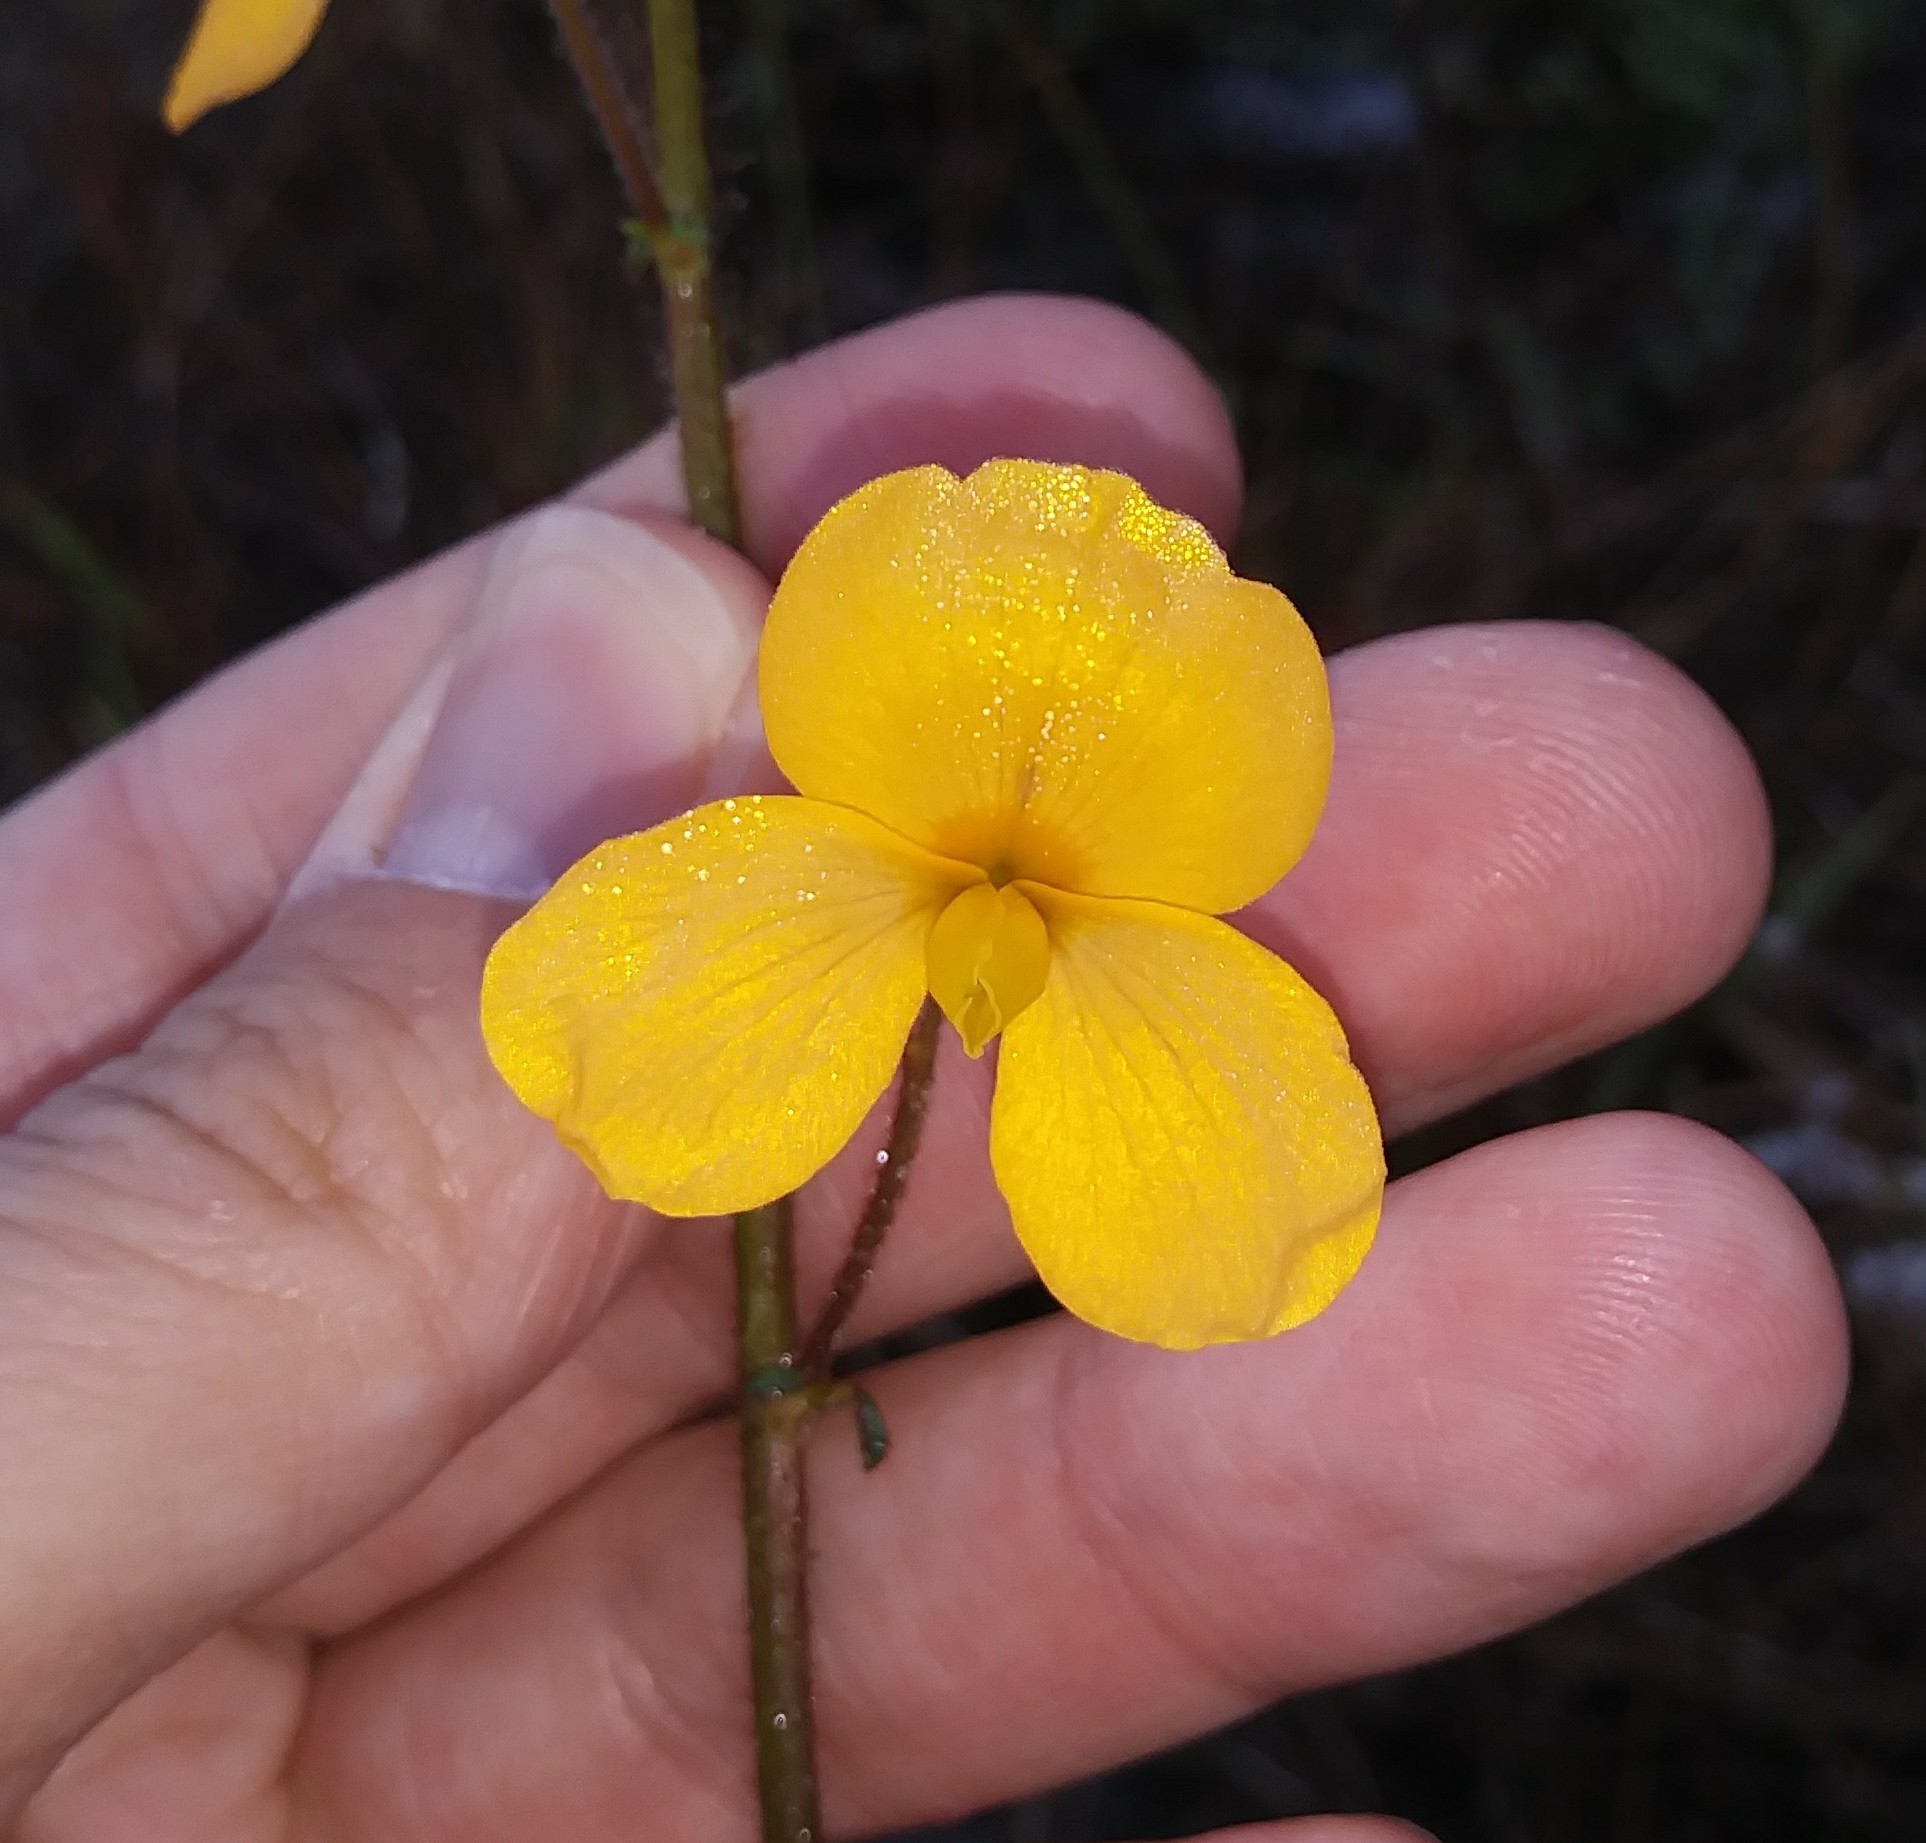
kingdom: Plantae
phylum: Tracheophyta
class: Magnoliopsida
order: Fabales
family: Fabaceae
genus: Chapmannia
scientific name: Chapmannia floridana
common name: Alicia
